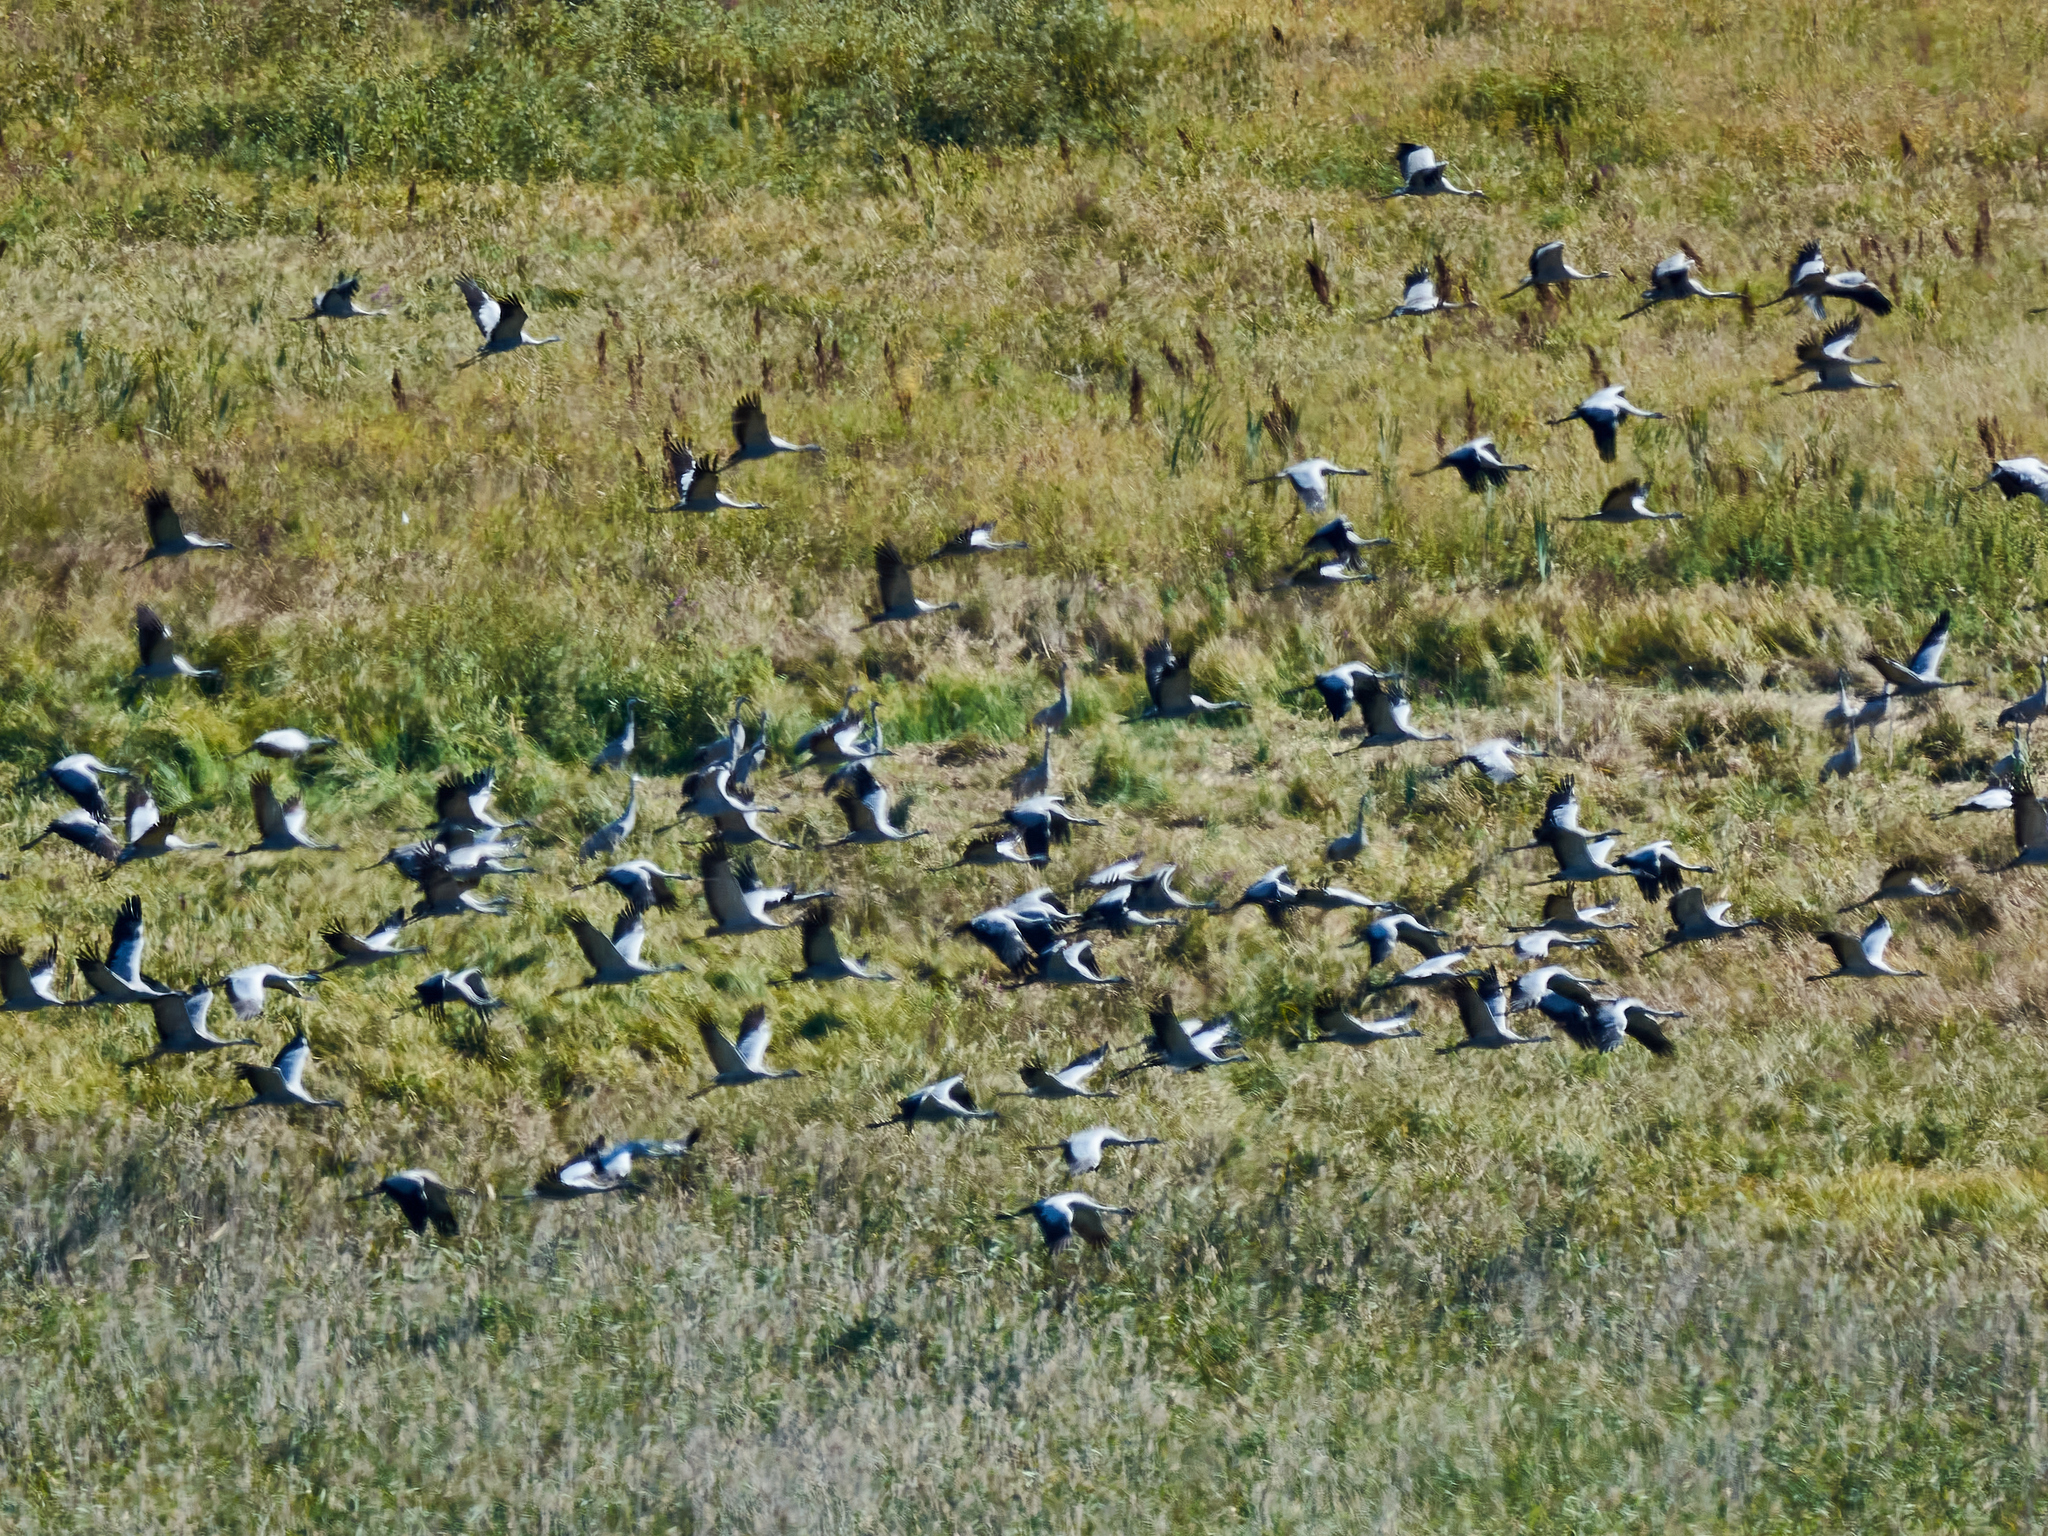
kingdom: Animalia
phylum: Chordata
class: Aves
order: Gruiformes
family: Gruidae
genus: Grus
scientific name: Grus grus
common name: Common crane
